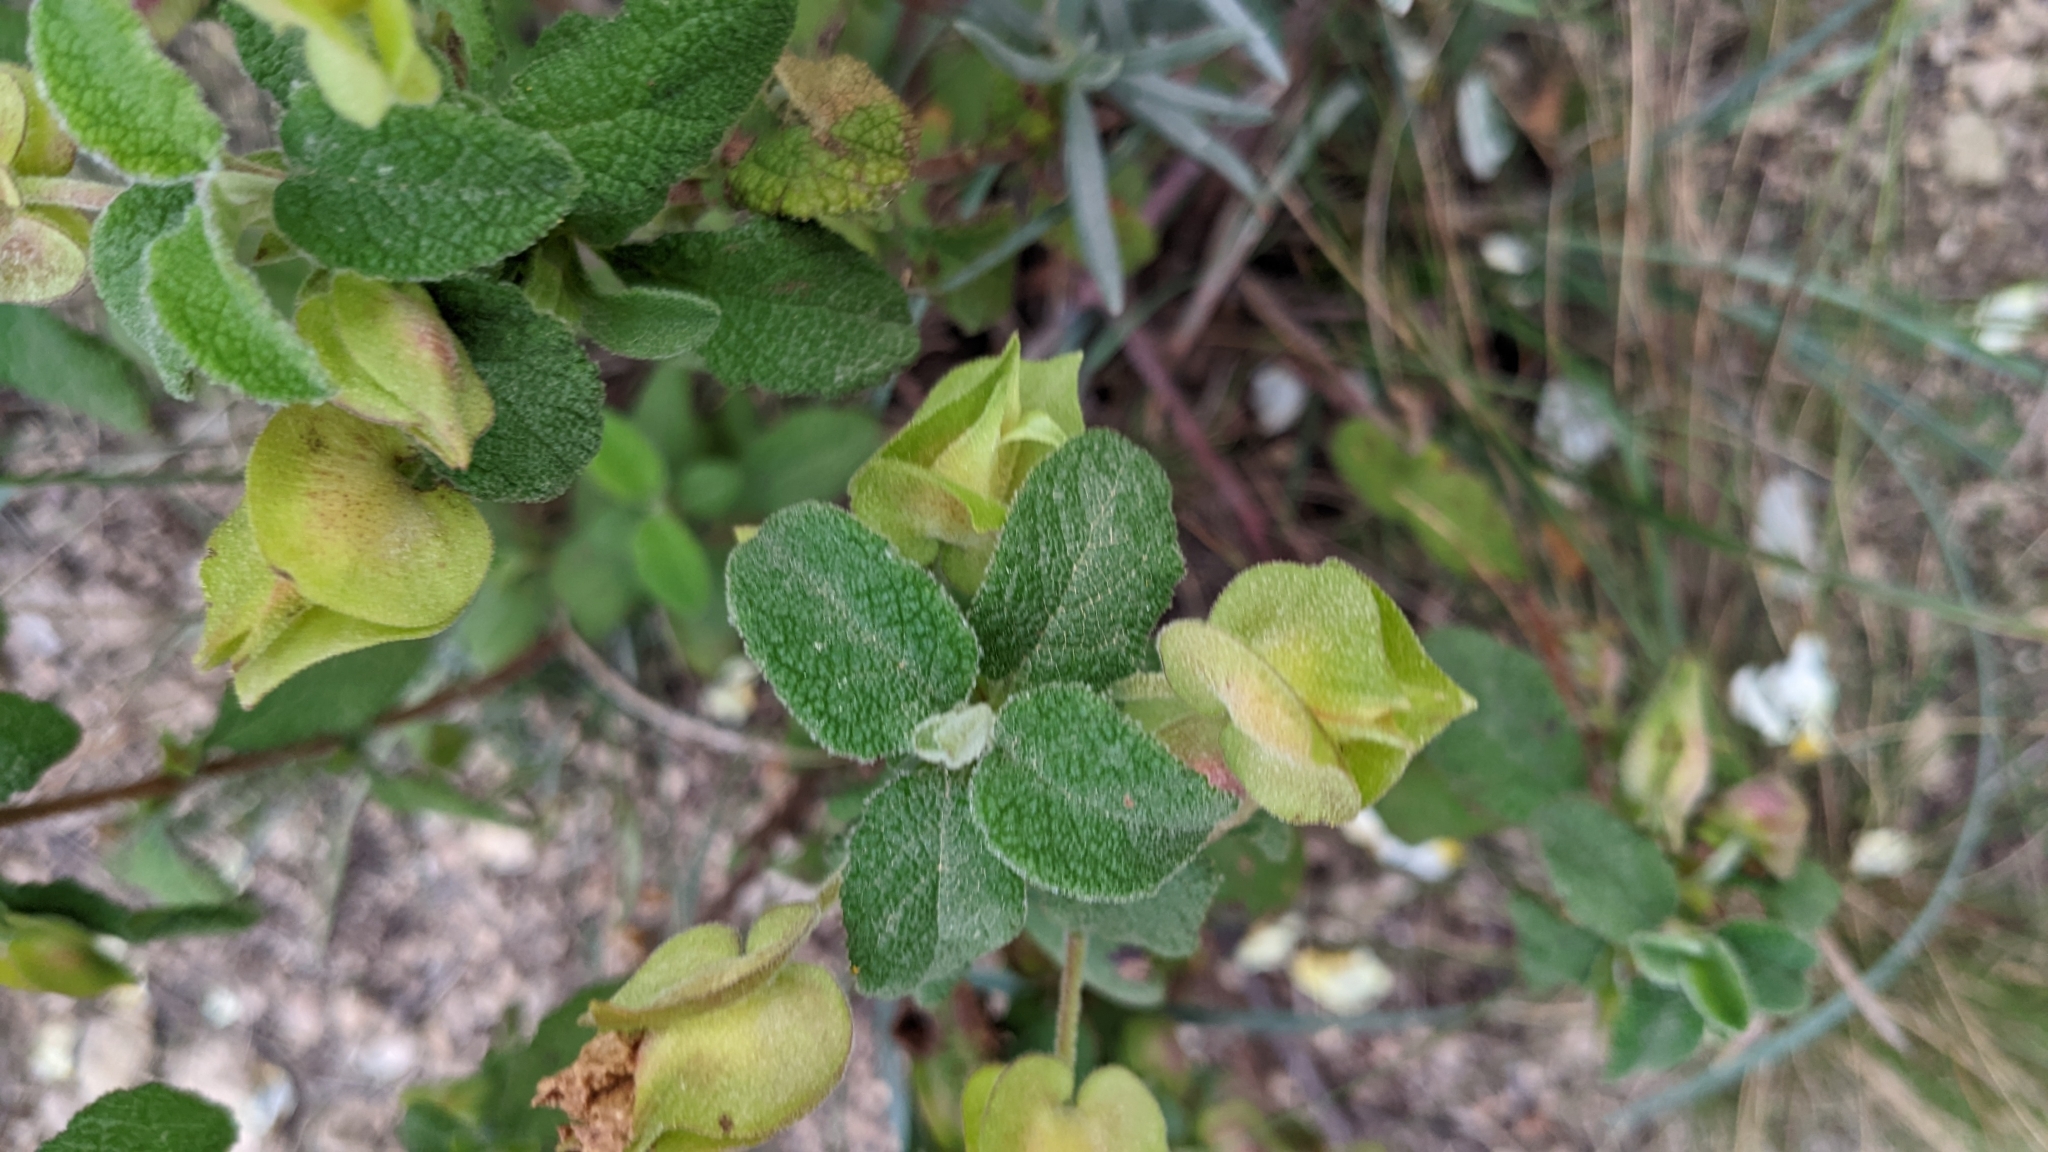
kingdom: Plantae
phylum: Tracheophyta
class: Magnoliopsida
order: Malvales
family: Cistaceae
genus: Cistus
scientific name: Cistus salviifolius
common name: Salvia cistus
